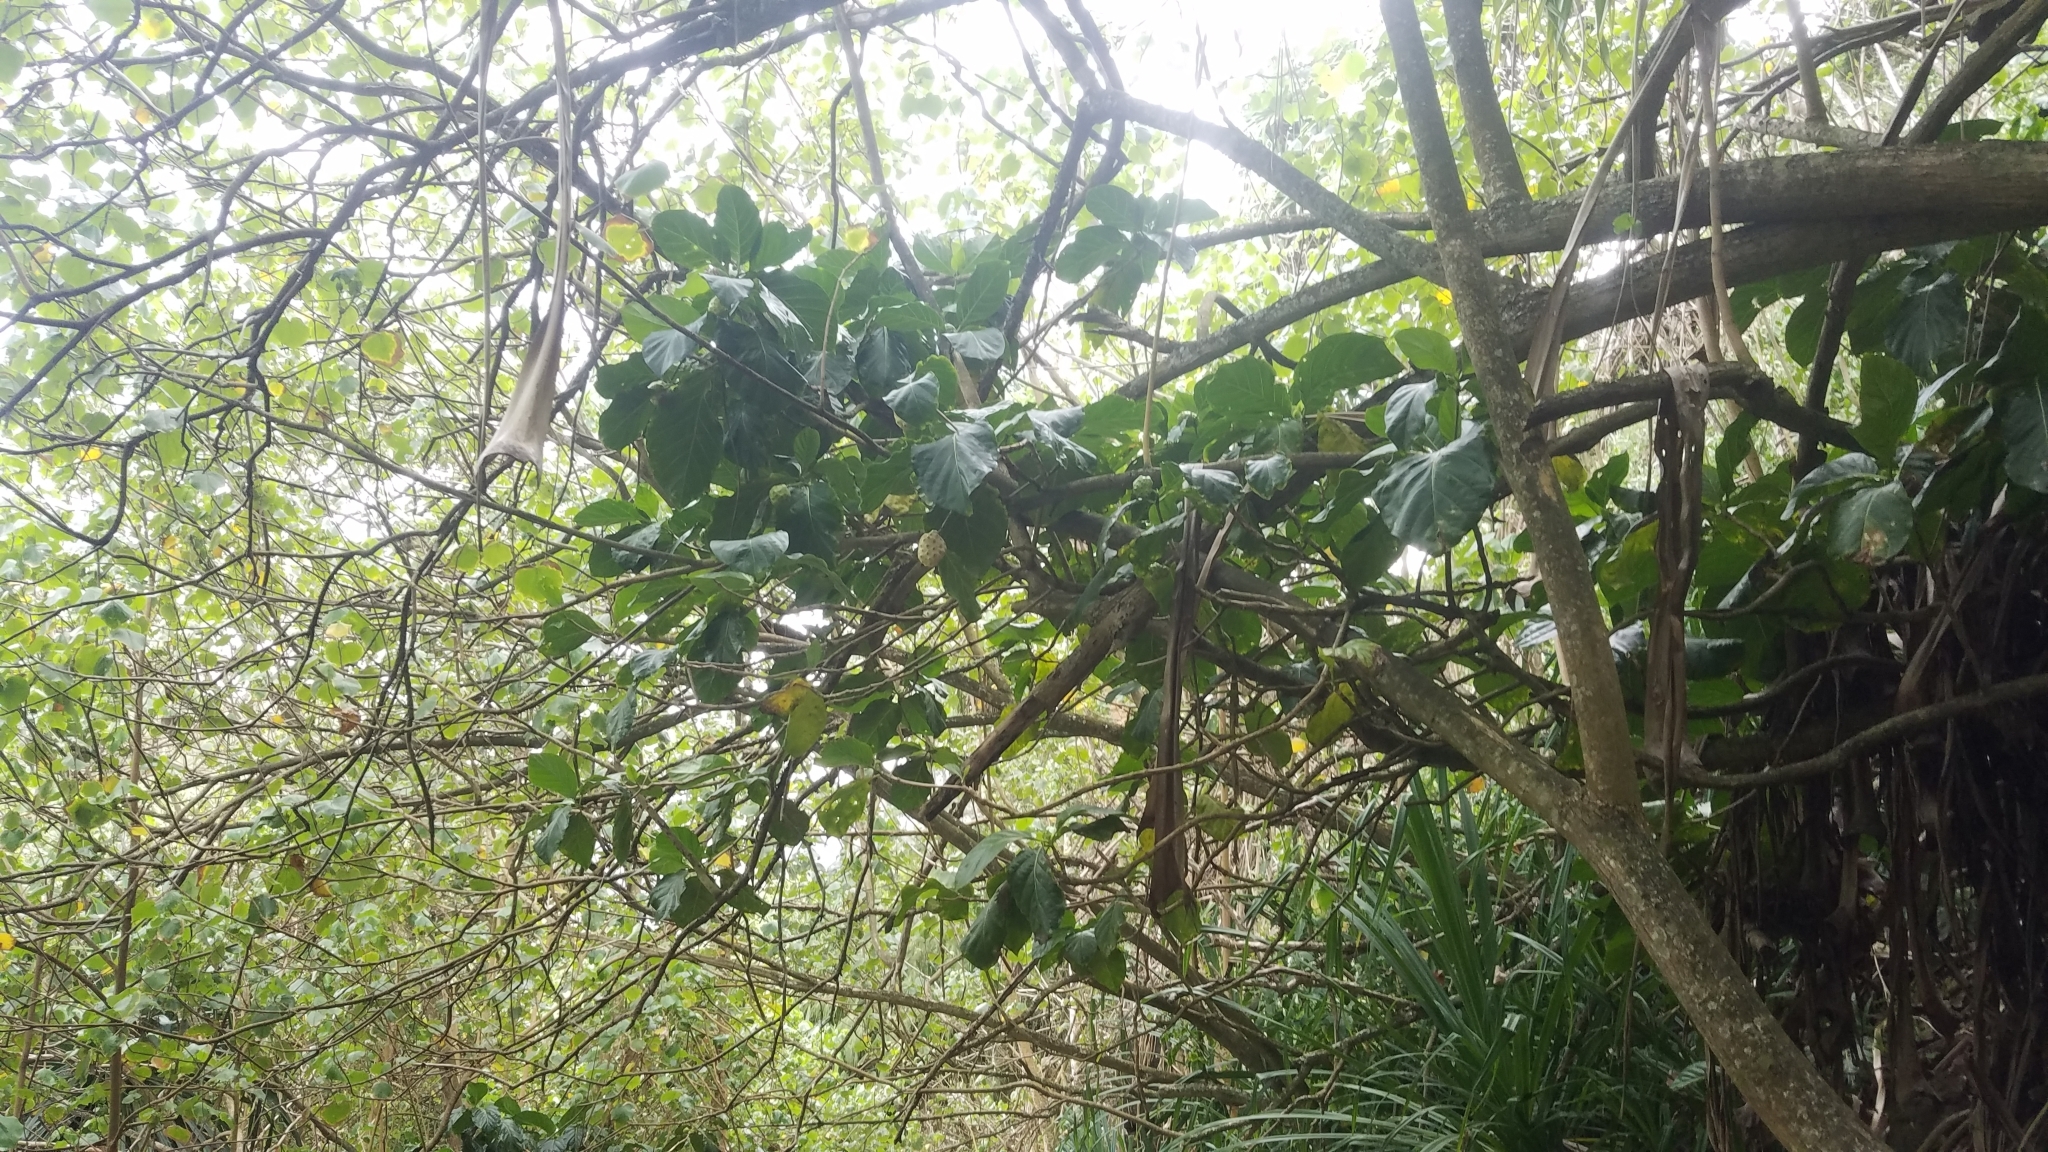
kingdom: Plantae
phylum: Tracheophyta
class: Magnoliopsida
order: Gentianales
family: Rubiaceae
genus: Morinda
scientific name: Morinda citrifolia
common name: Indian-mulberry
